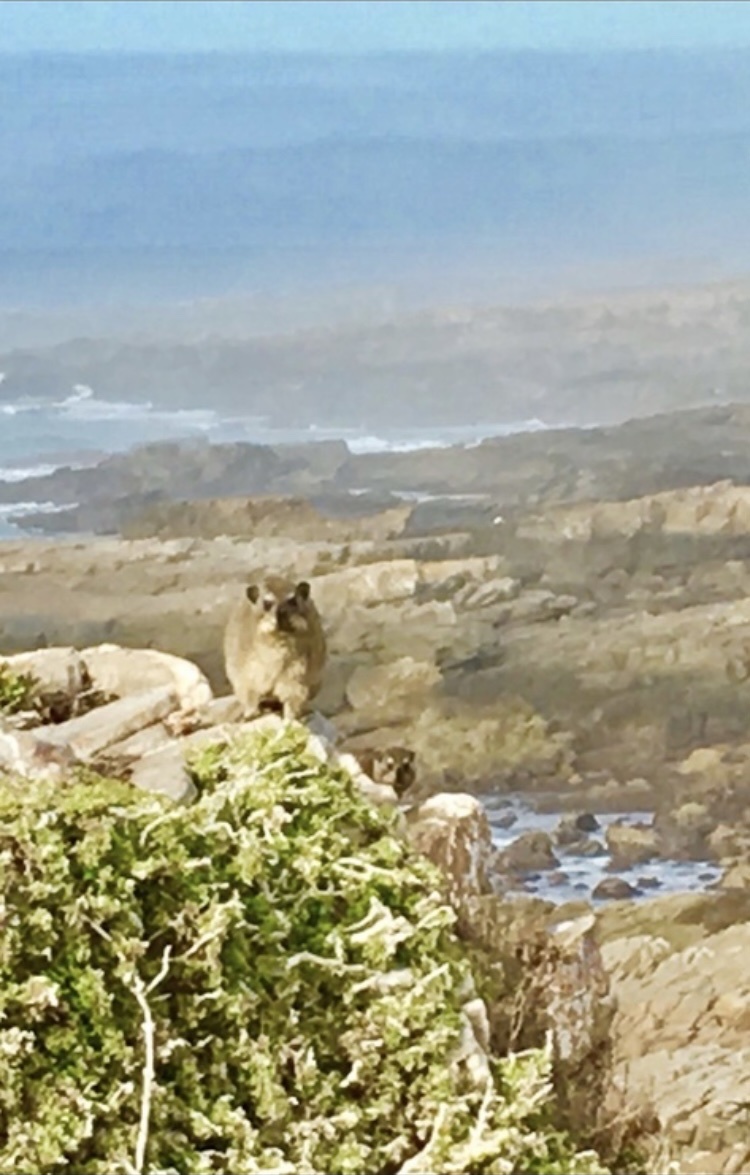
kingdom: Animalia
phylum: Chordata
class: Mammalia
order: Hyracoidea
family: Procaviidae
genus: Procavia
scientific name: Procavia capensis
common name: Rock hyrax
